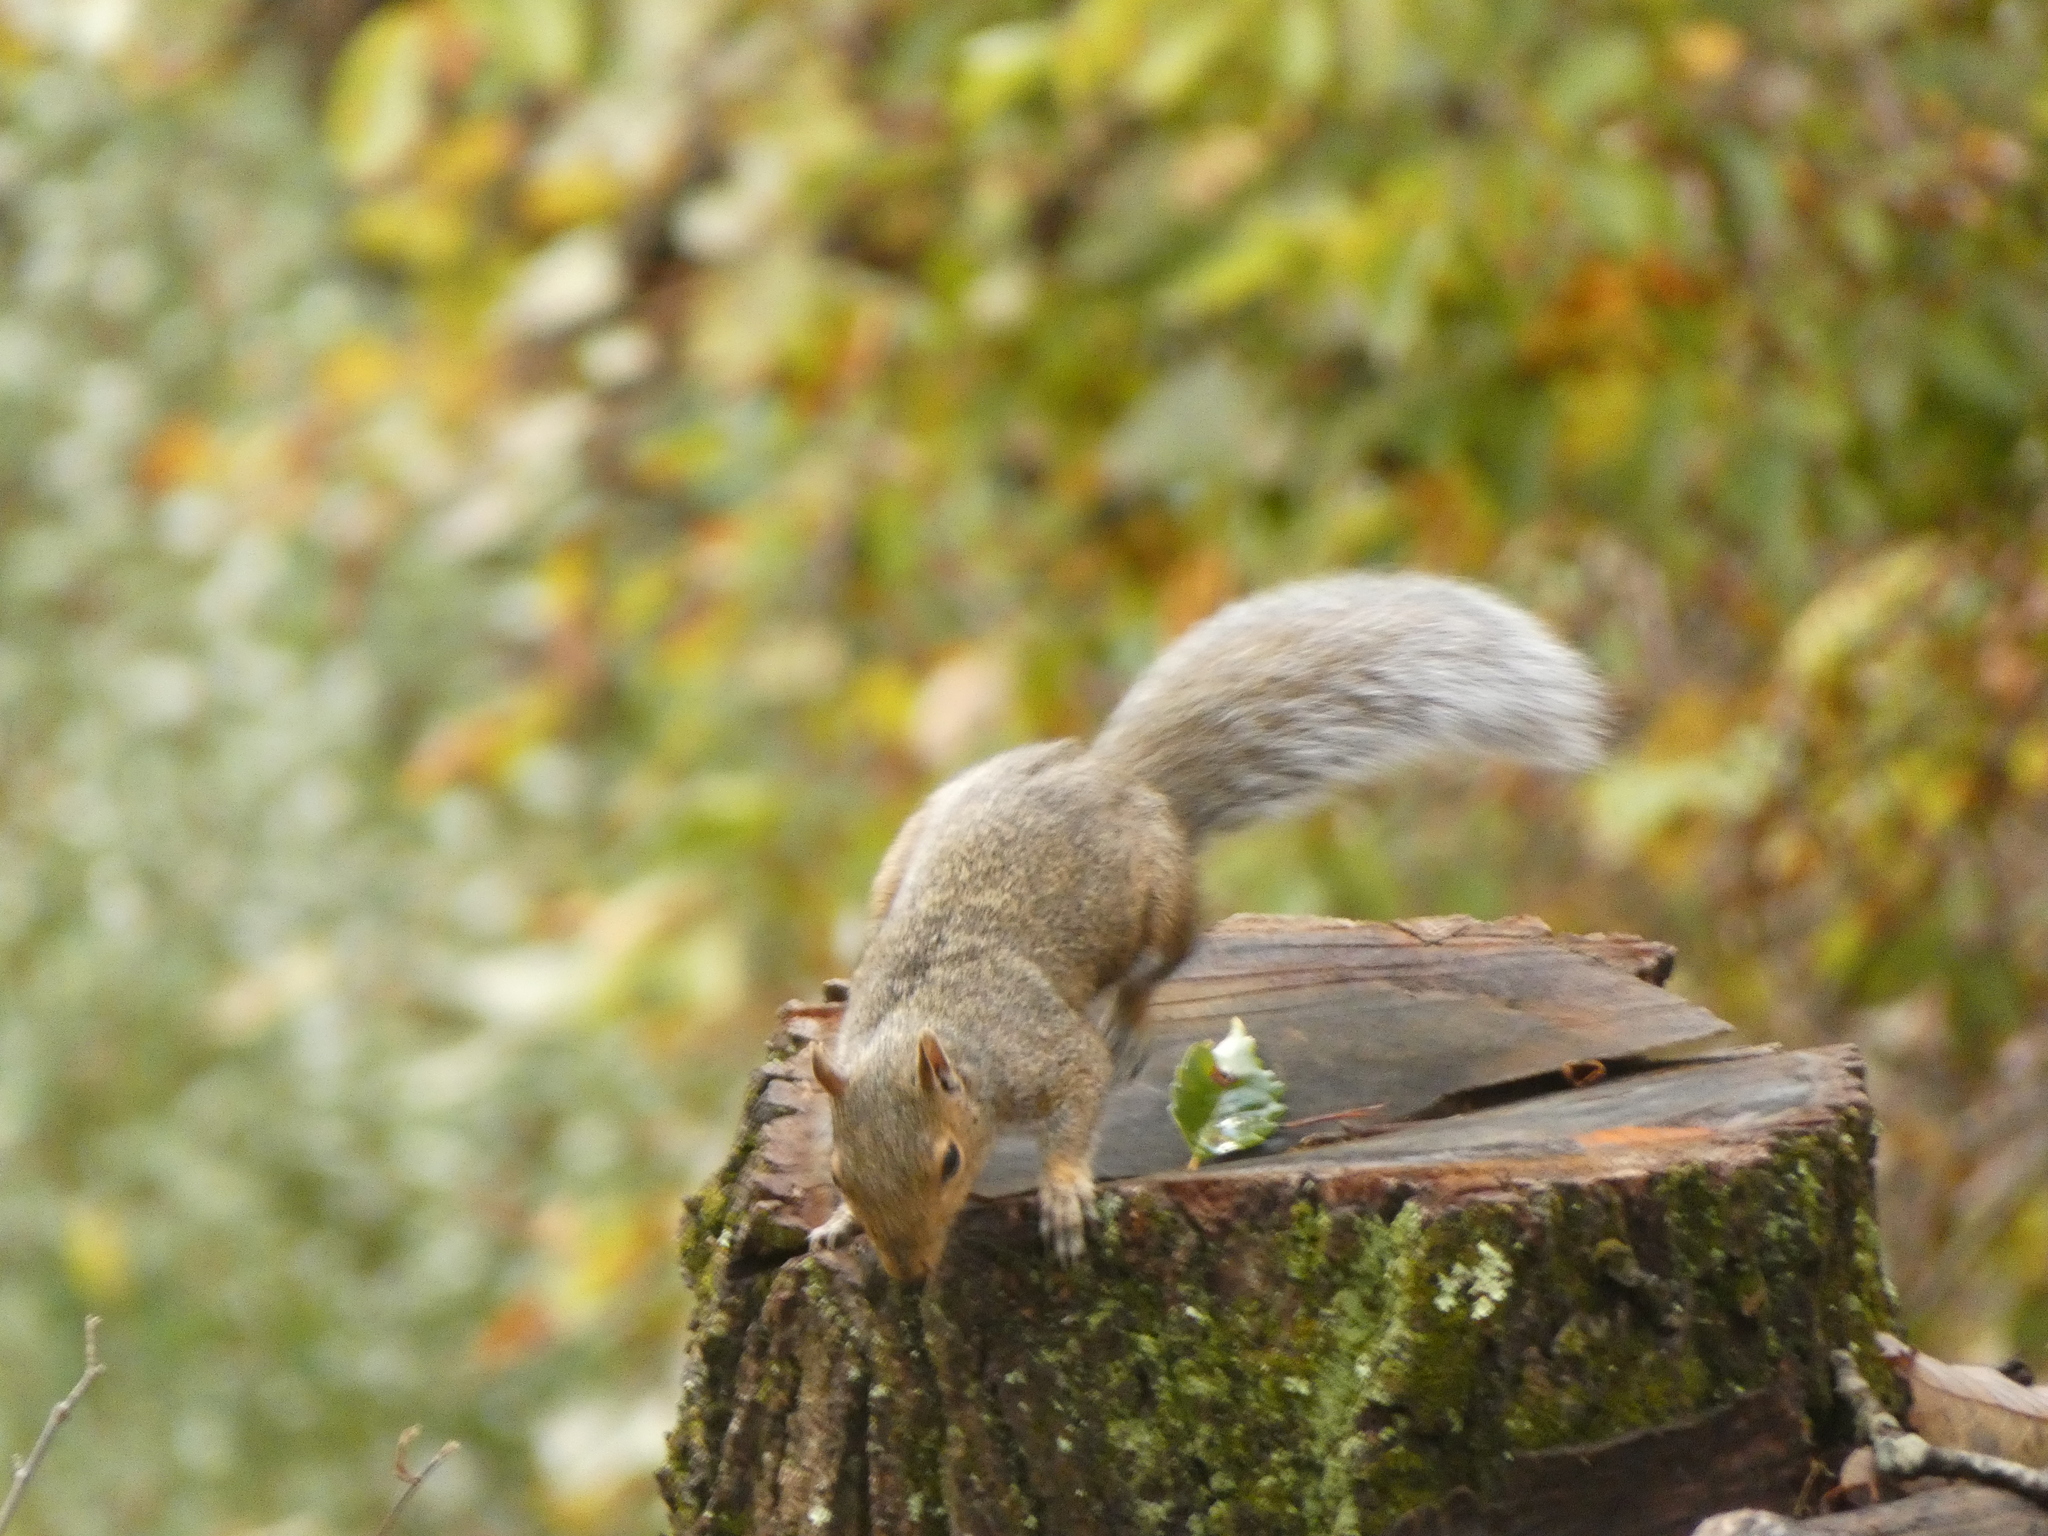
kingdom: Animalia
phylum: Chordata
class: Mammalia
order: Rodentia
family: Sciuridae
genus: Sciurus
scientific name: Sciurus carolinensis
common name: Eastern gray squirrel
